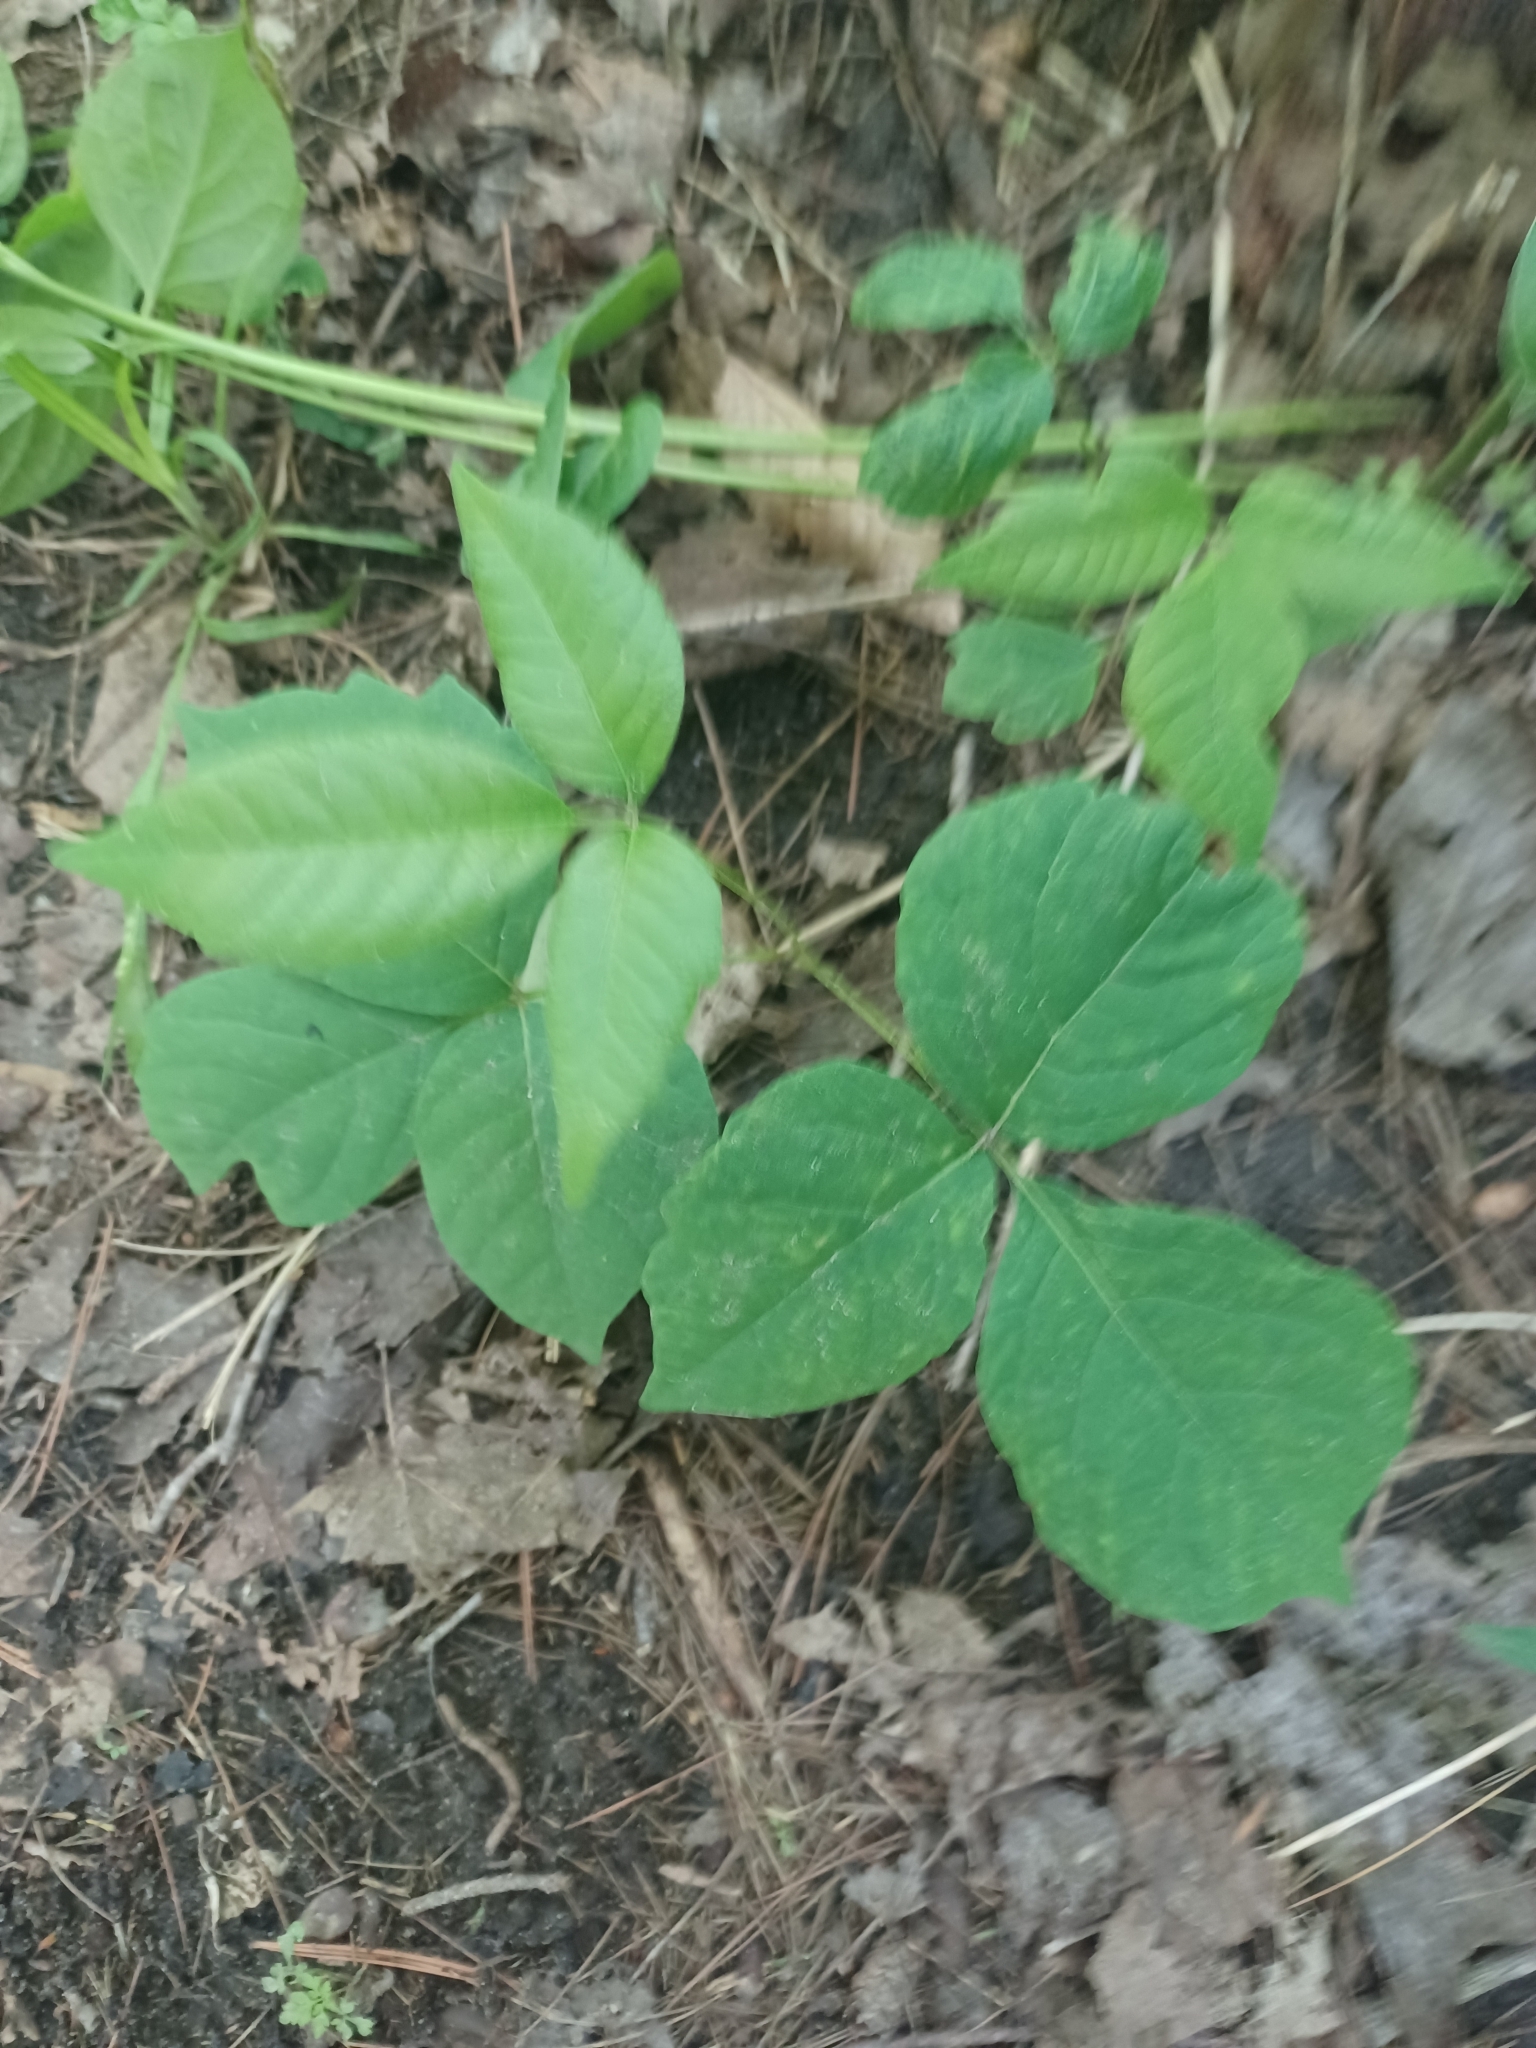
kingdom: Plantae
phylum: Tracheophyta
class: Magnoliopsida
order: Sapindales
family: Anacardiaceae
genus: Toxicodendron
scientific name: Toxicodendron rydbergii
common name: Rydberg's poison-ivy
